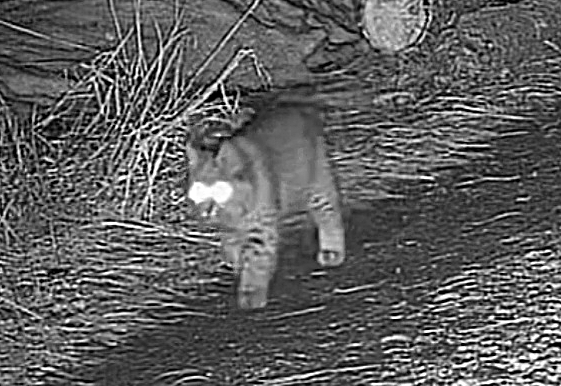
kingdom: Animalia
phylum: Chordata
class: Mammalia
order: Carnivora
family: Felidae
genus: Lynx
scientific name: Lynx rufus
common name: Bobcat
